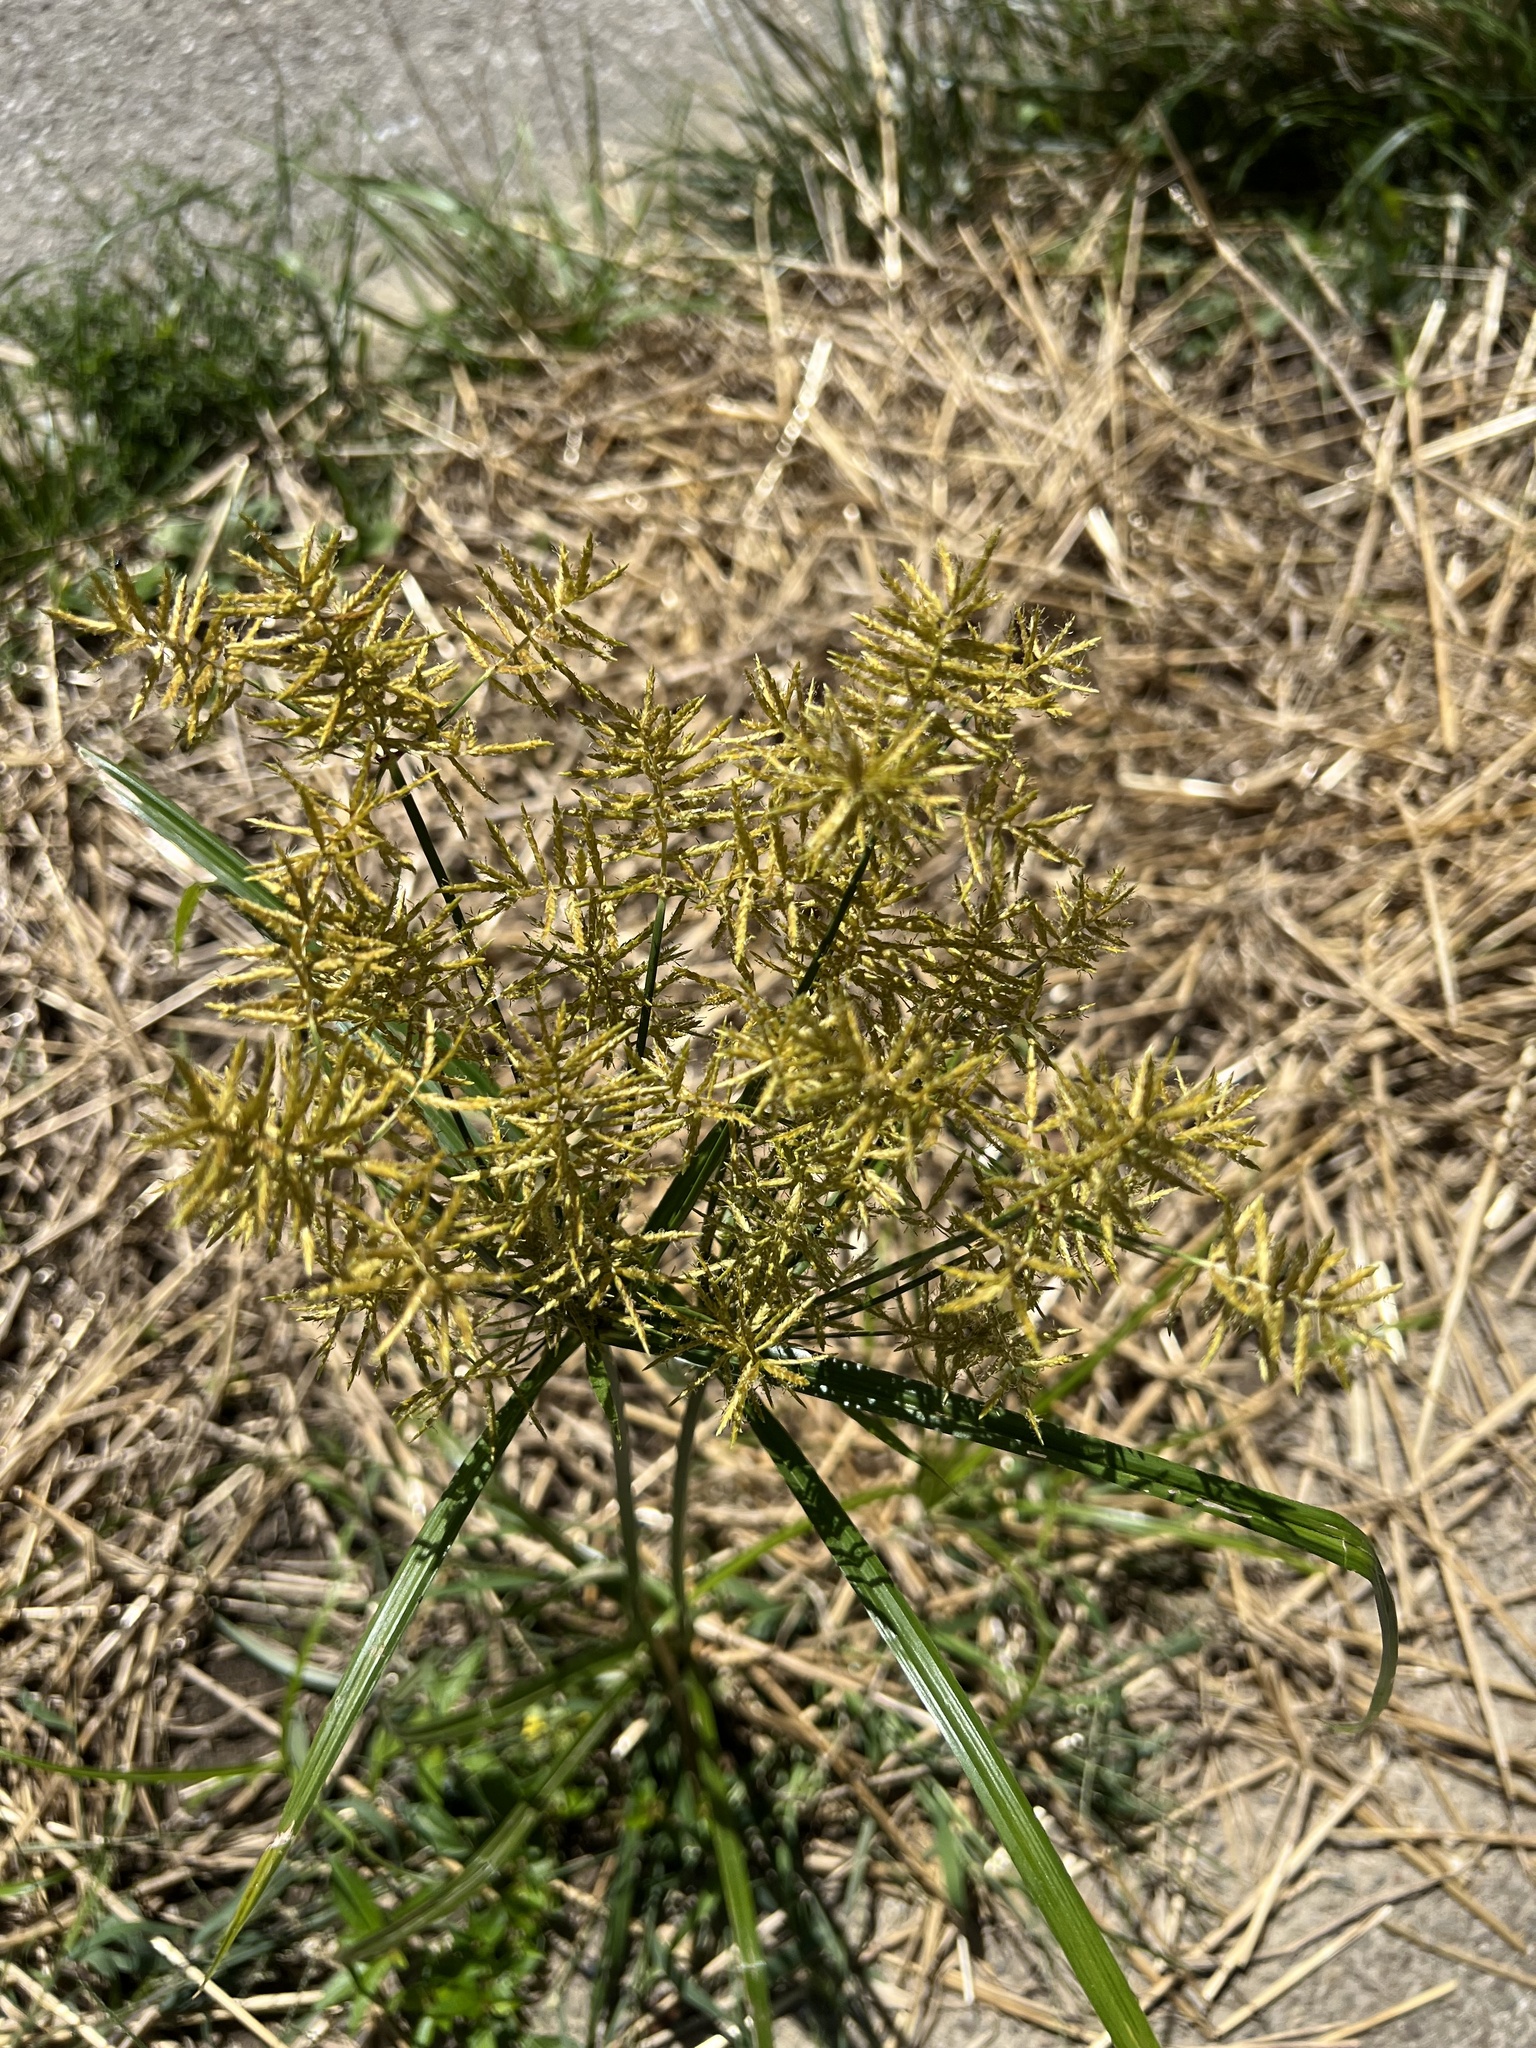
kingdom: Plantae
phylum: Tracheophyta
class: Liliopsida
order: Poales
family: Cyperaceae
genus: Cyperus
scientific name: Cyperus esculentus
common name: Yellow nutsedge
